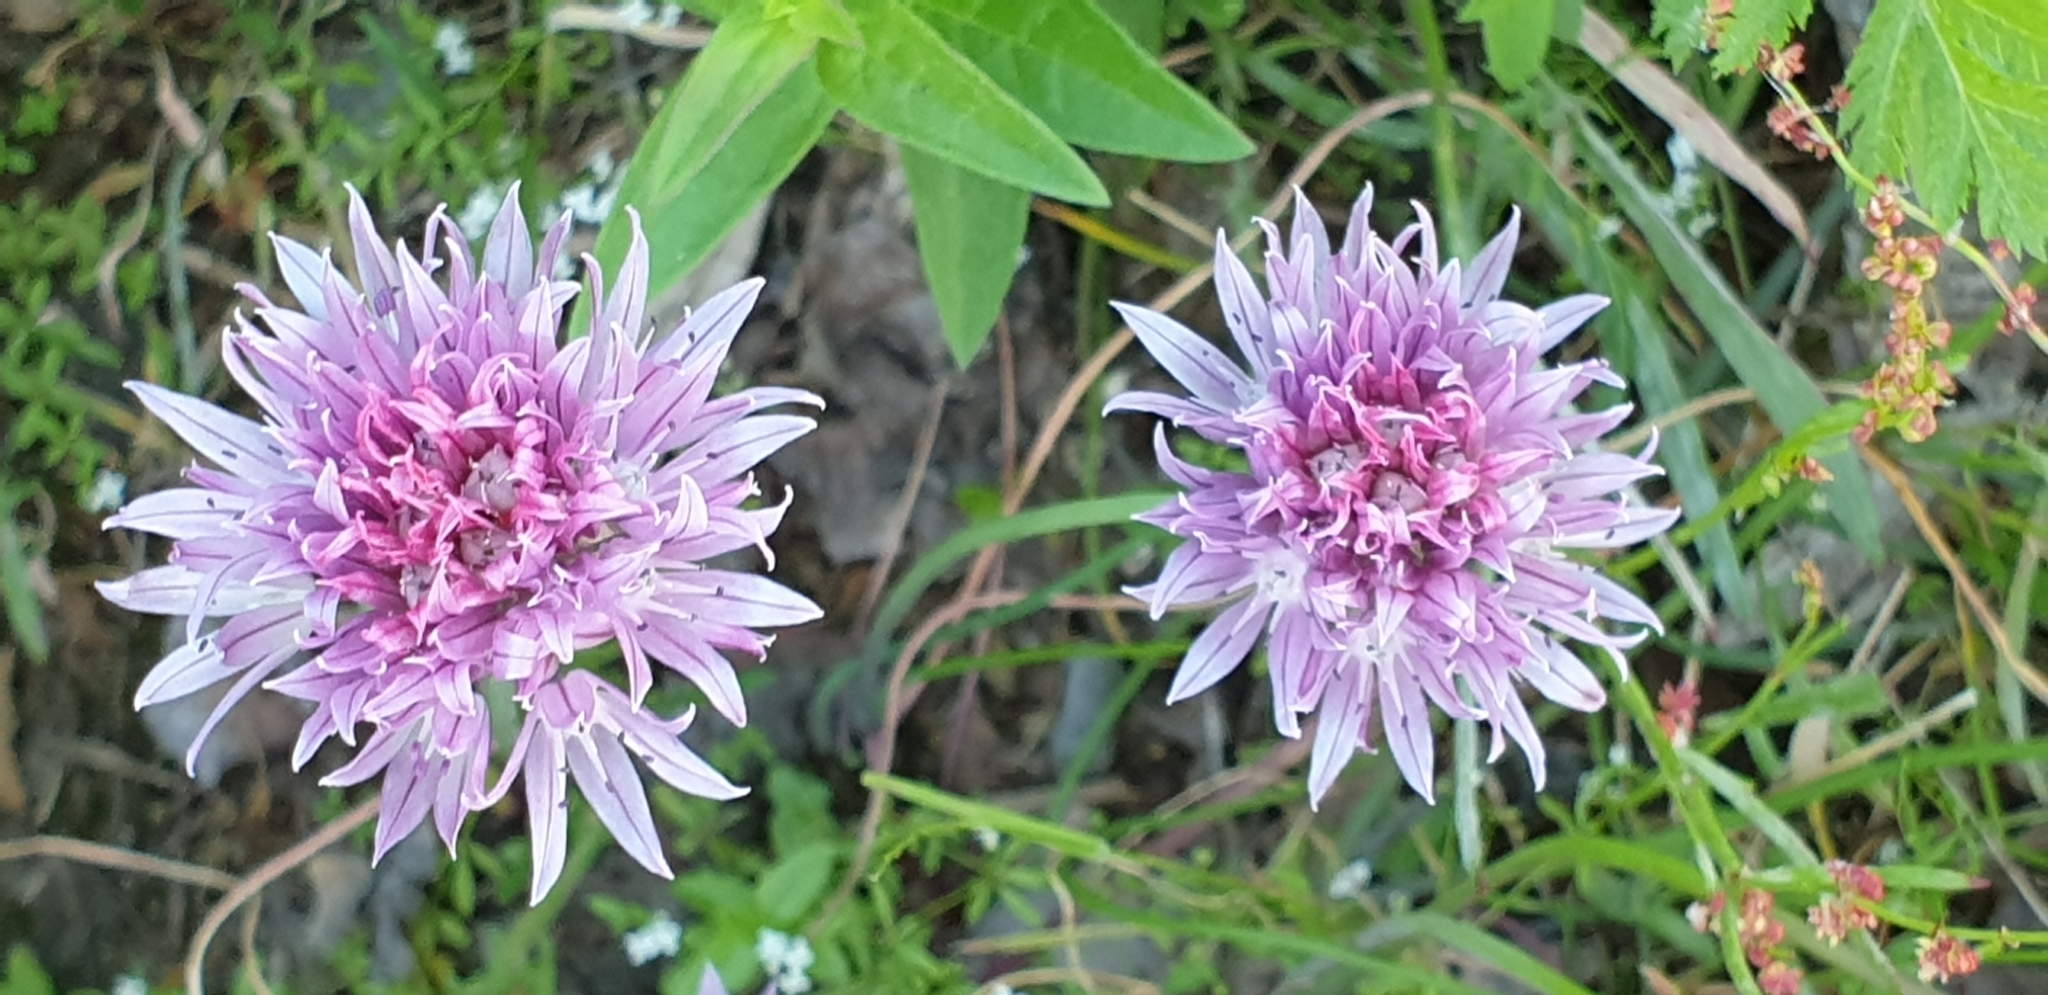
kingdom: Plantae
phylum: Tracheophyta
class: Liliopsida
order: Asparagales
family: Amaryllidaceae
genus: Allium
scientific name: Allium schoenoprasum
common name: Chives
